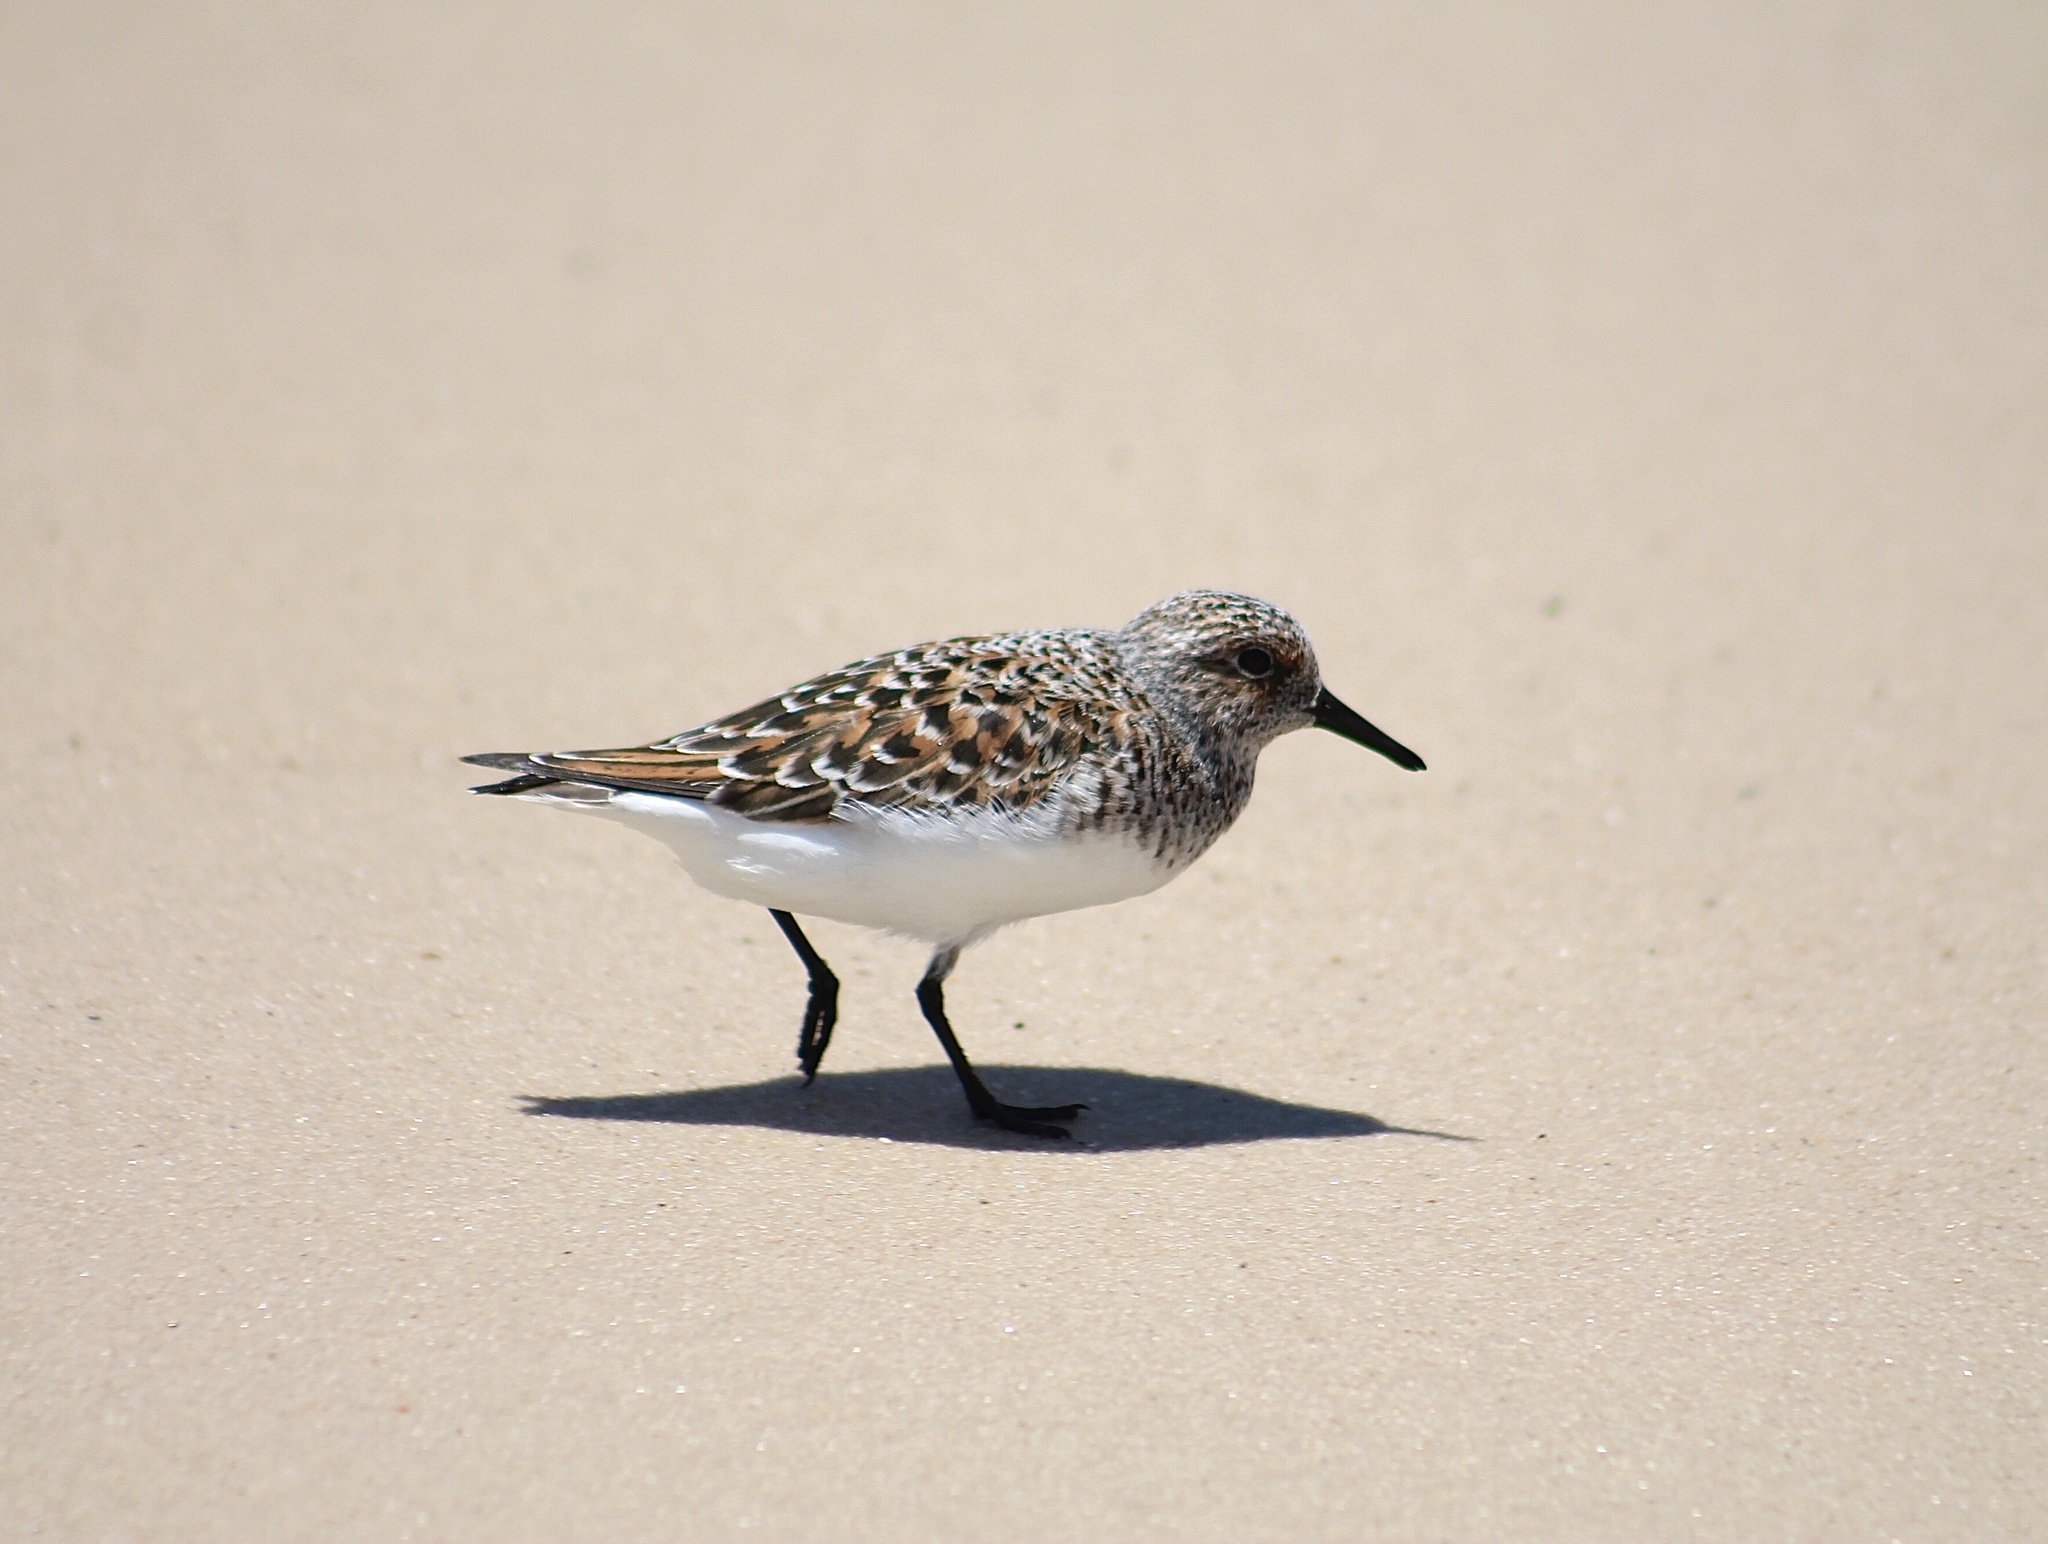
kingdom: Animalia
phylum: Chordata
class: Aves
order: Charadriiformes
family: Scolopacidae
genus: Calidris
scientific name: Calidris alba
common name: Sanderling
